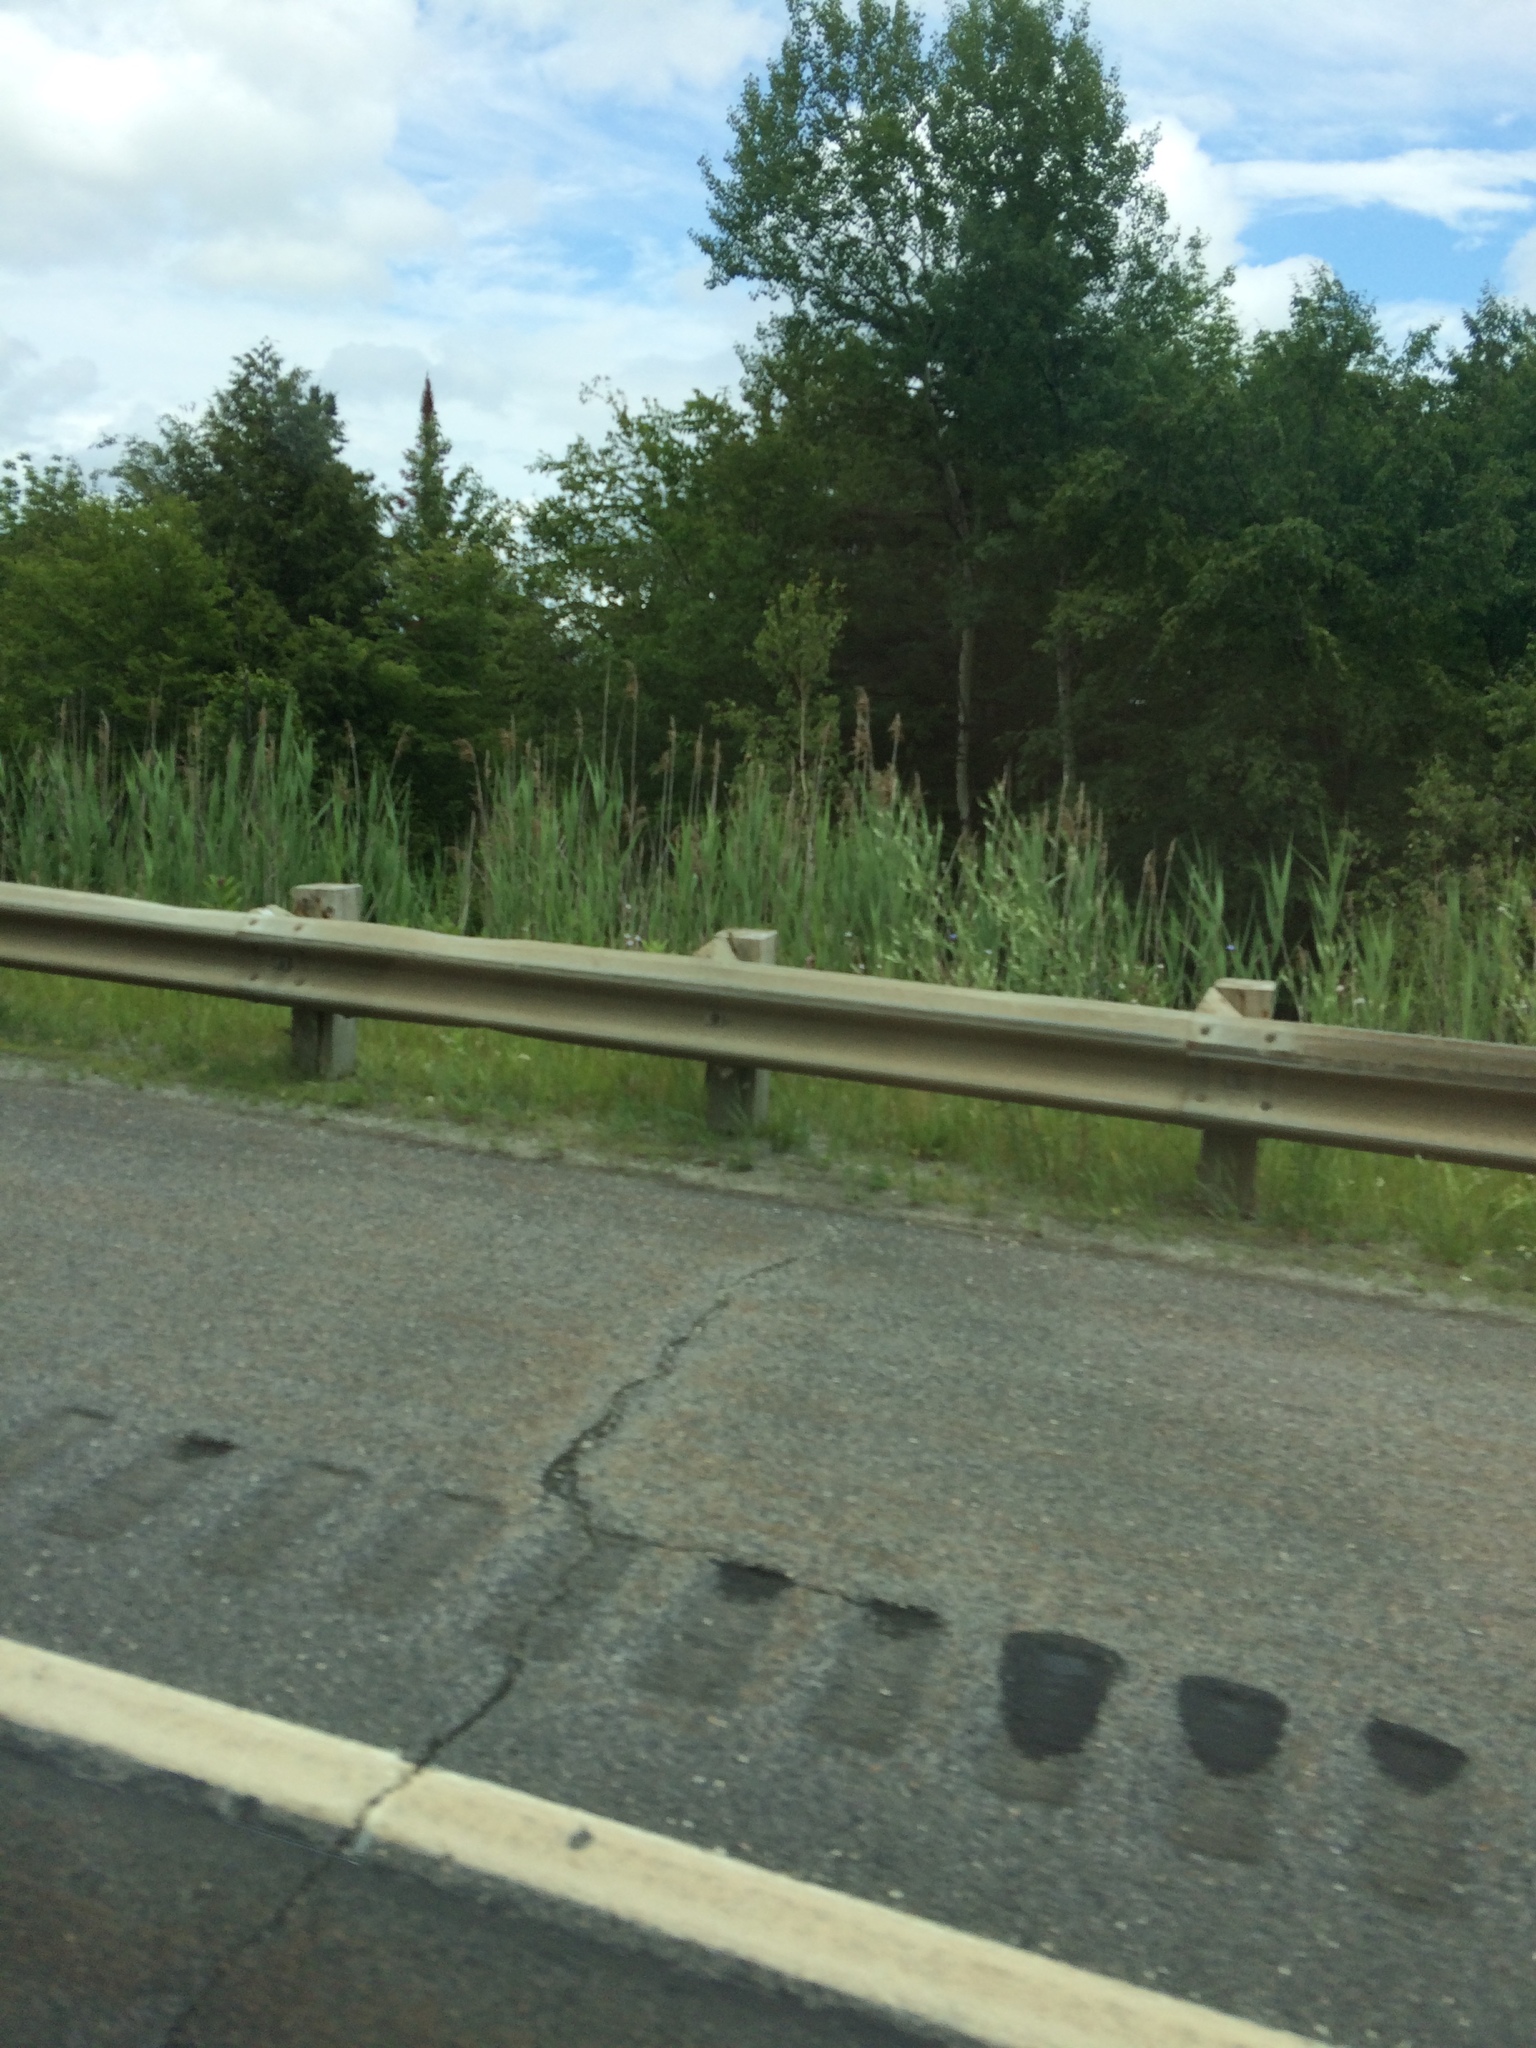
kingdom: Plantae
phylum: Tracheophyta
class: Liliopsida
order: Poales
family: Poaceae
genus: Phragmites
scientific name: Phragmites australis
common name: Common reed
